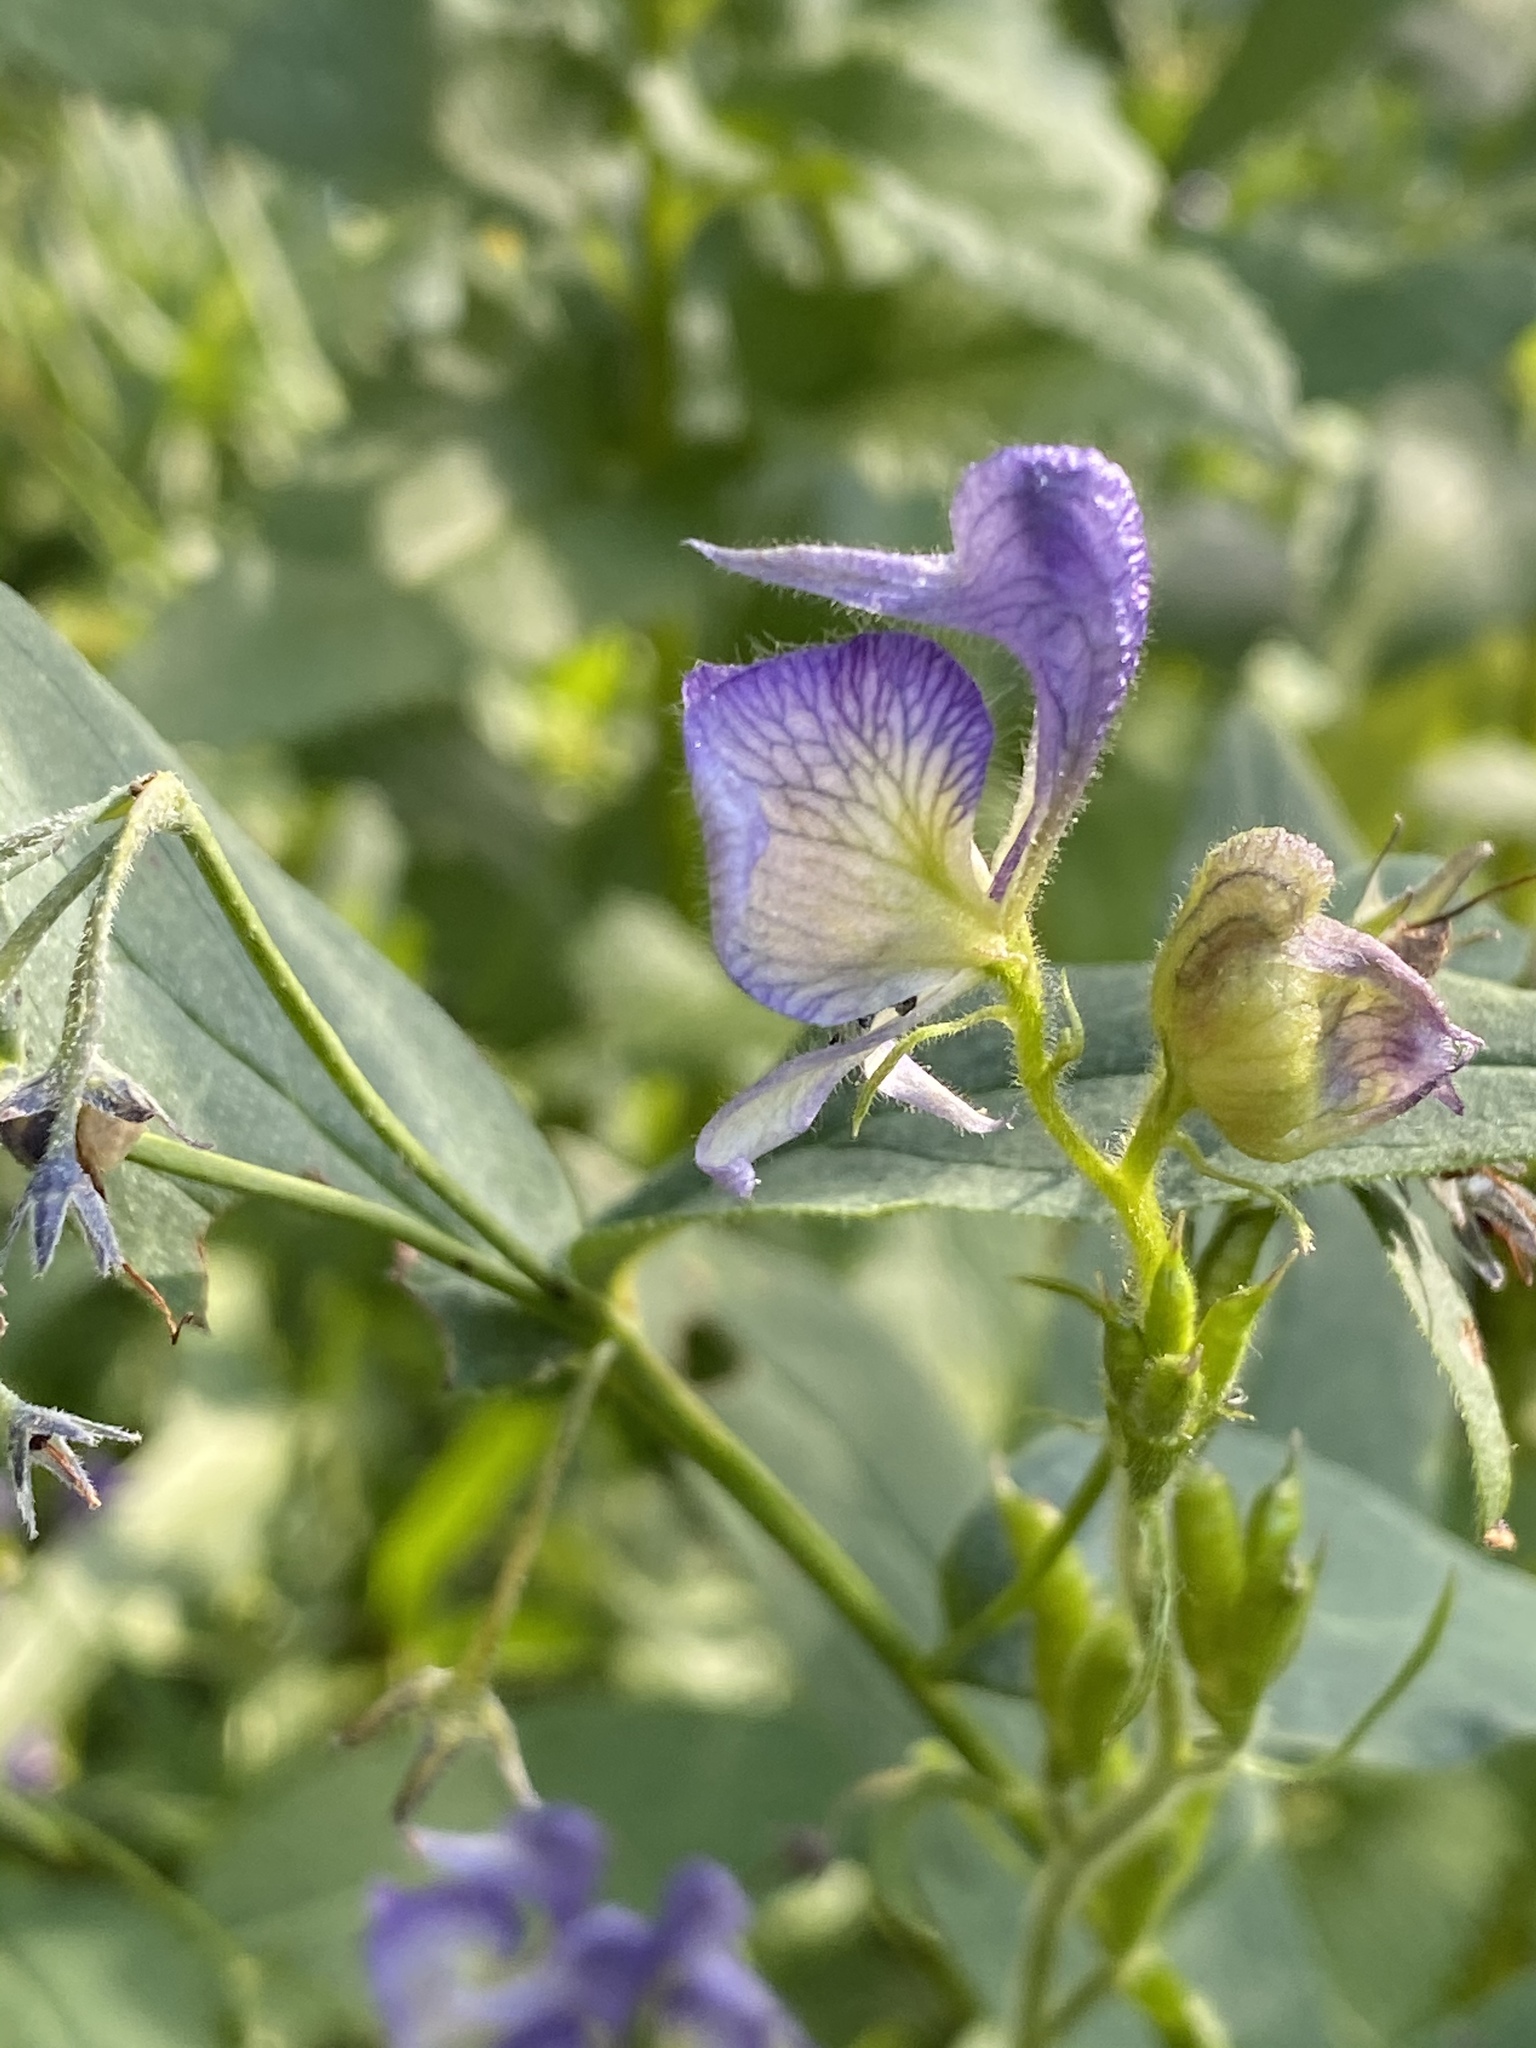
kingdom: Plantae
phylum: Tracheophyta
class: Magnoliopsida
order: Ranunculales
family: Ranunculaceae
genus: Aconitum
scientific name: Aconitum columbianum
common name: Columbia aconite
